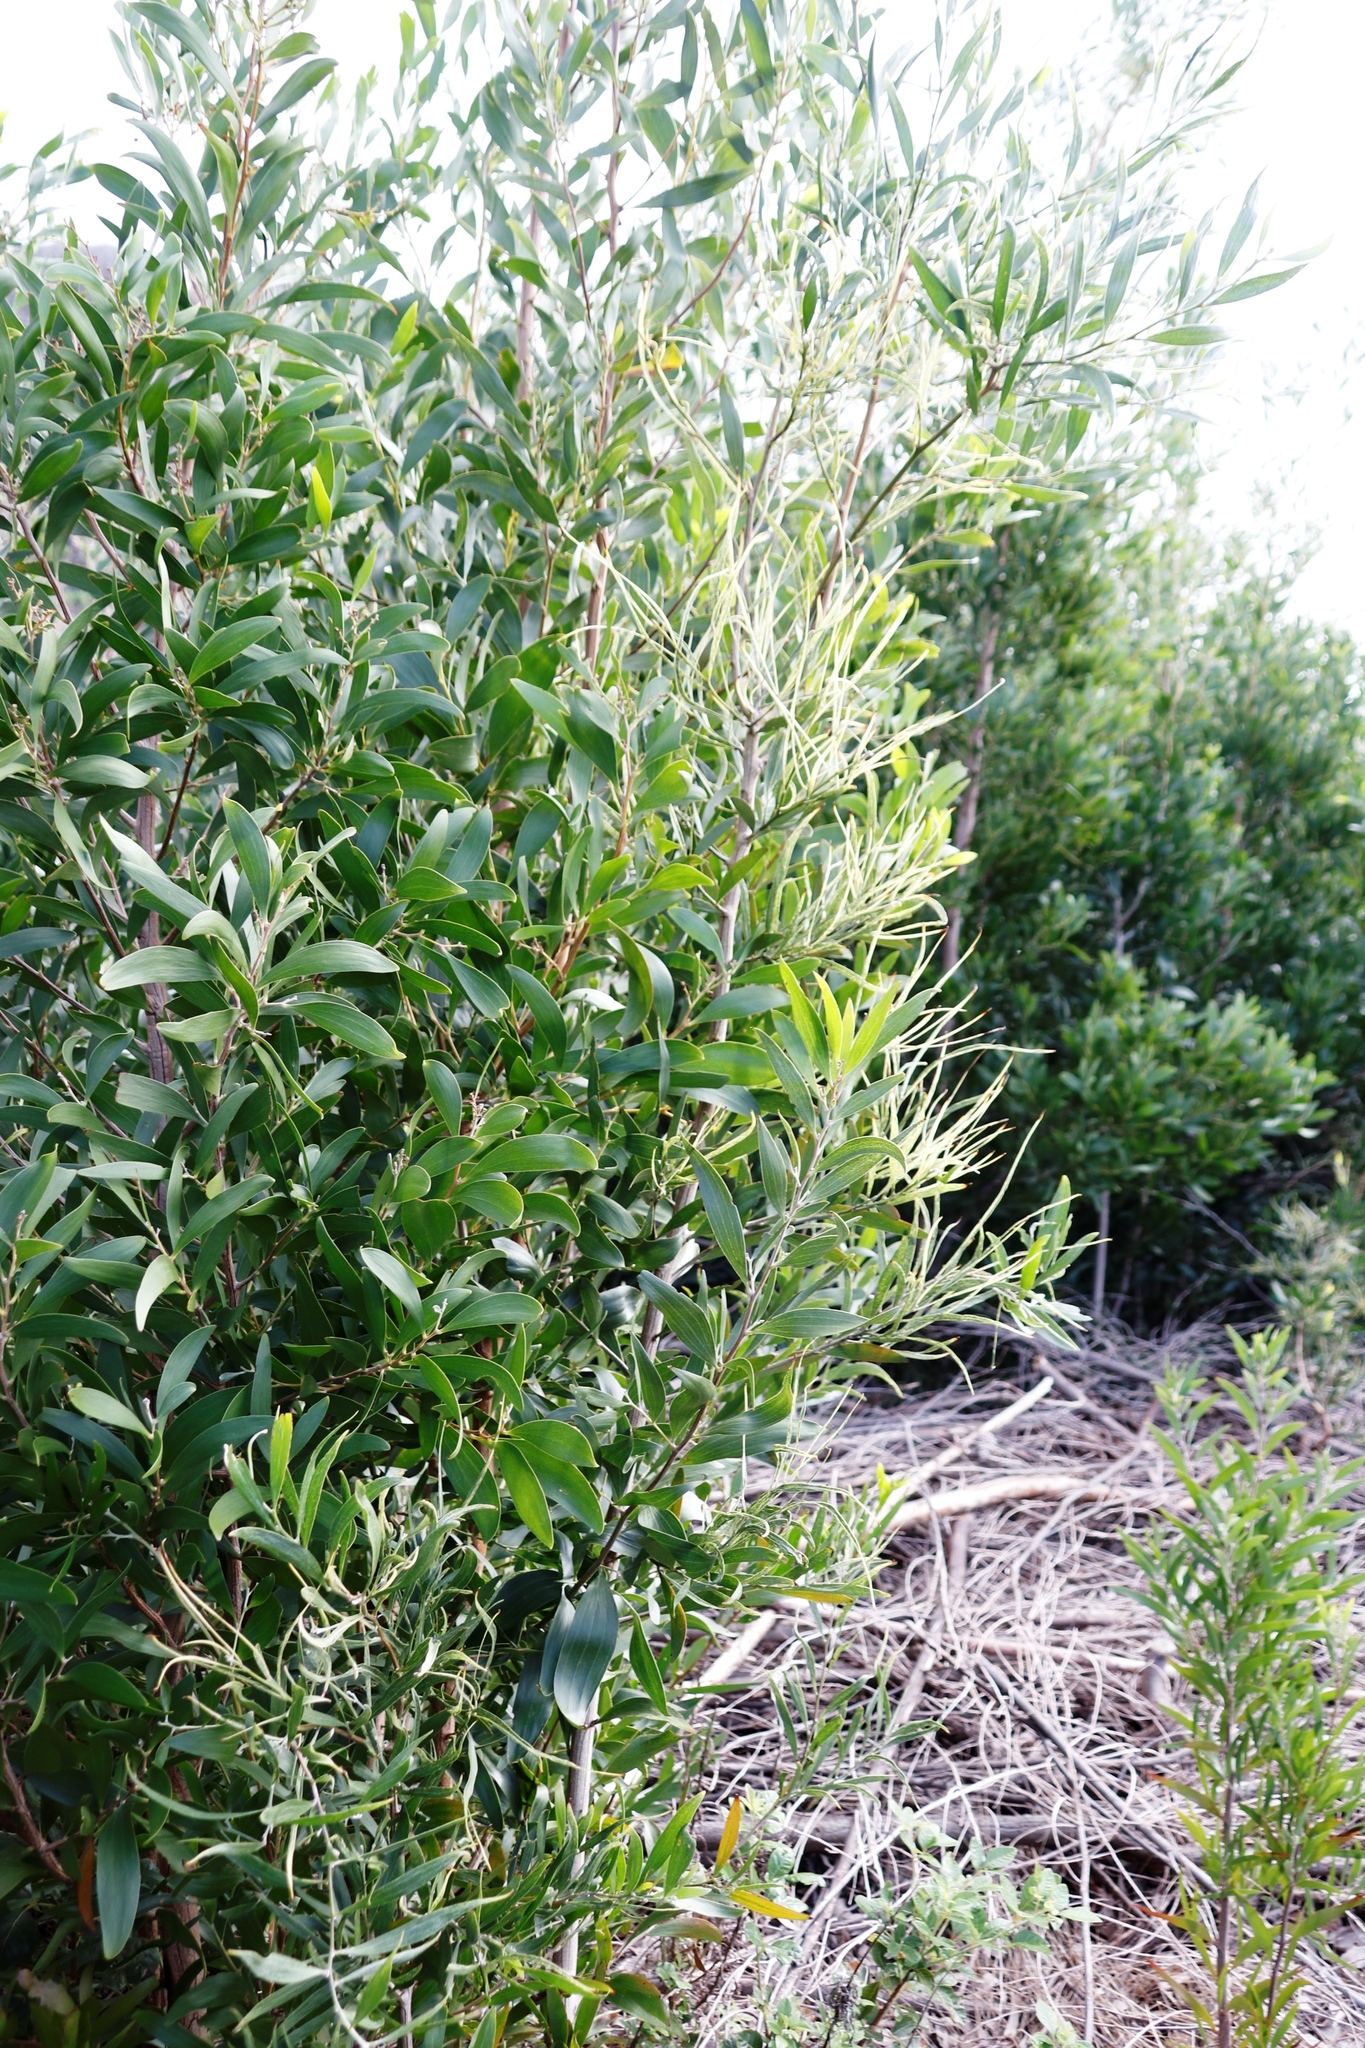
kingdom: Plantae
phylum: Tracheophyta
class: Magnoliopsida
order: Fabales
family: Fabaceae
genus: Acacia
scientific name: Acacia melanoxylon
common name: Blackwood
